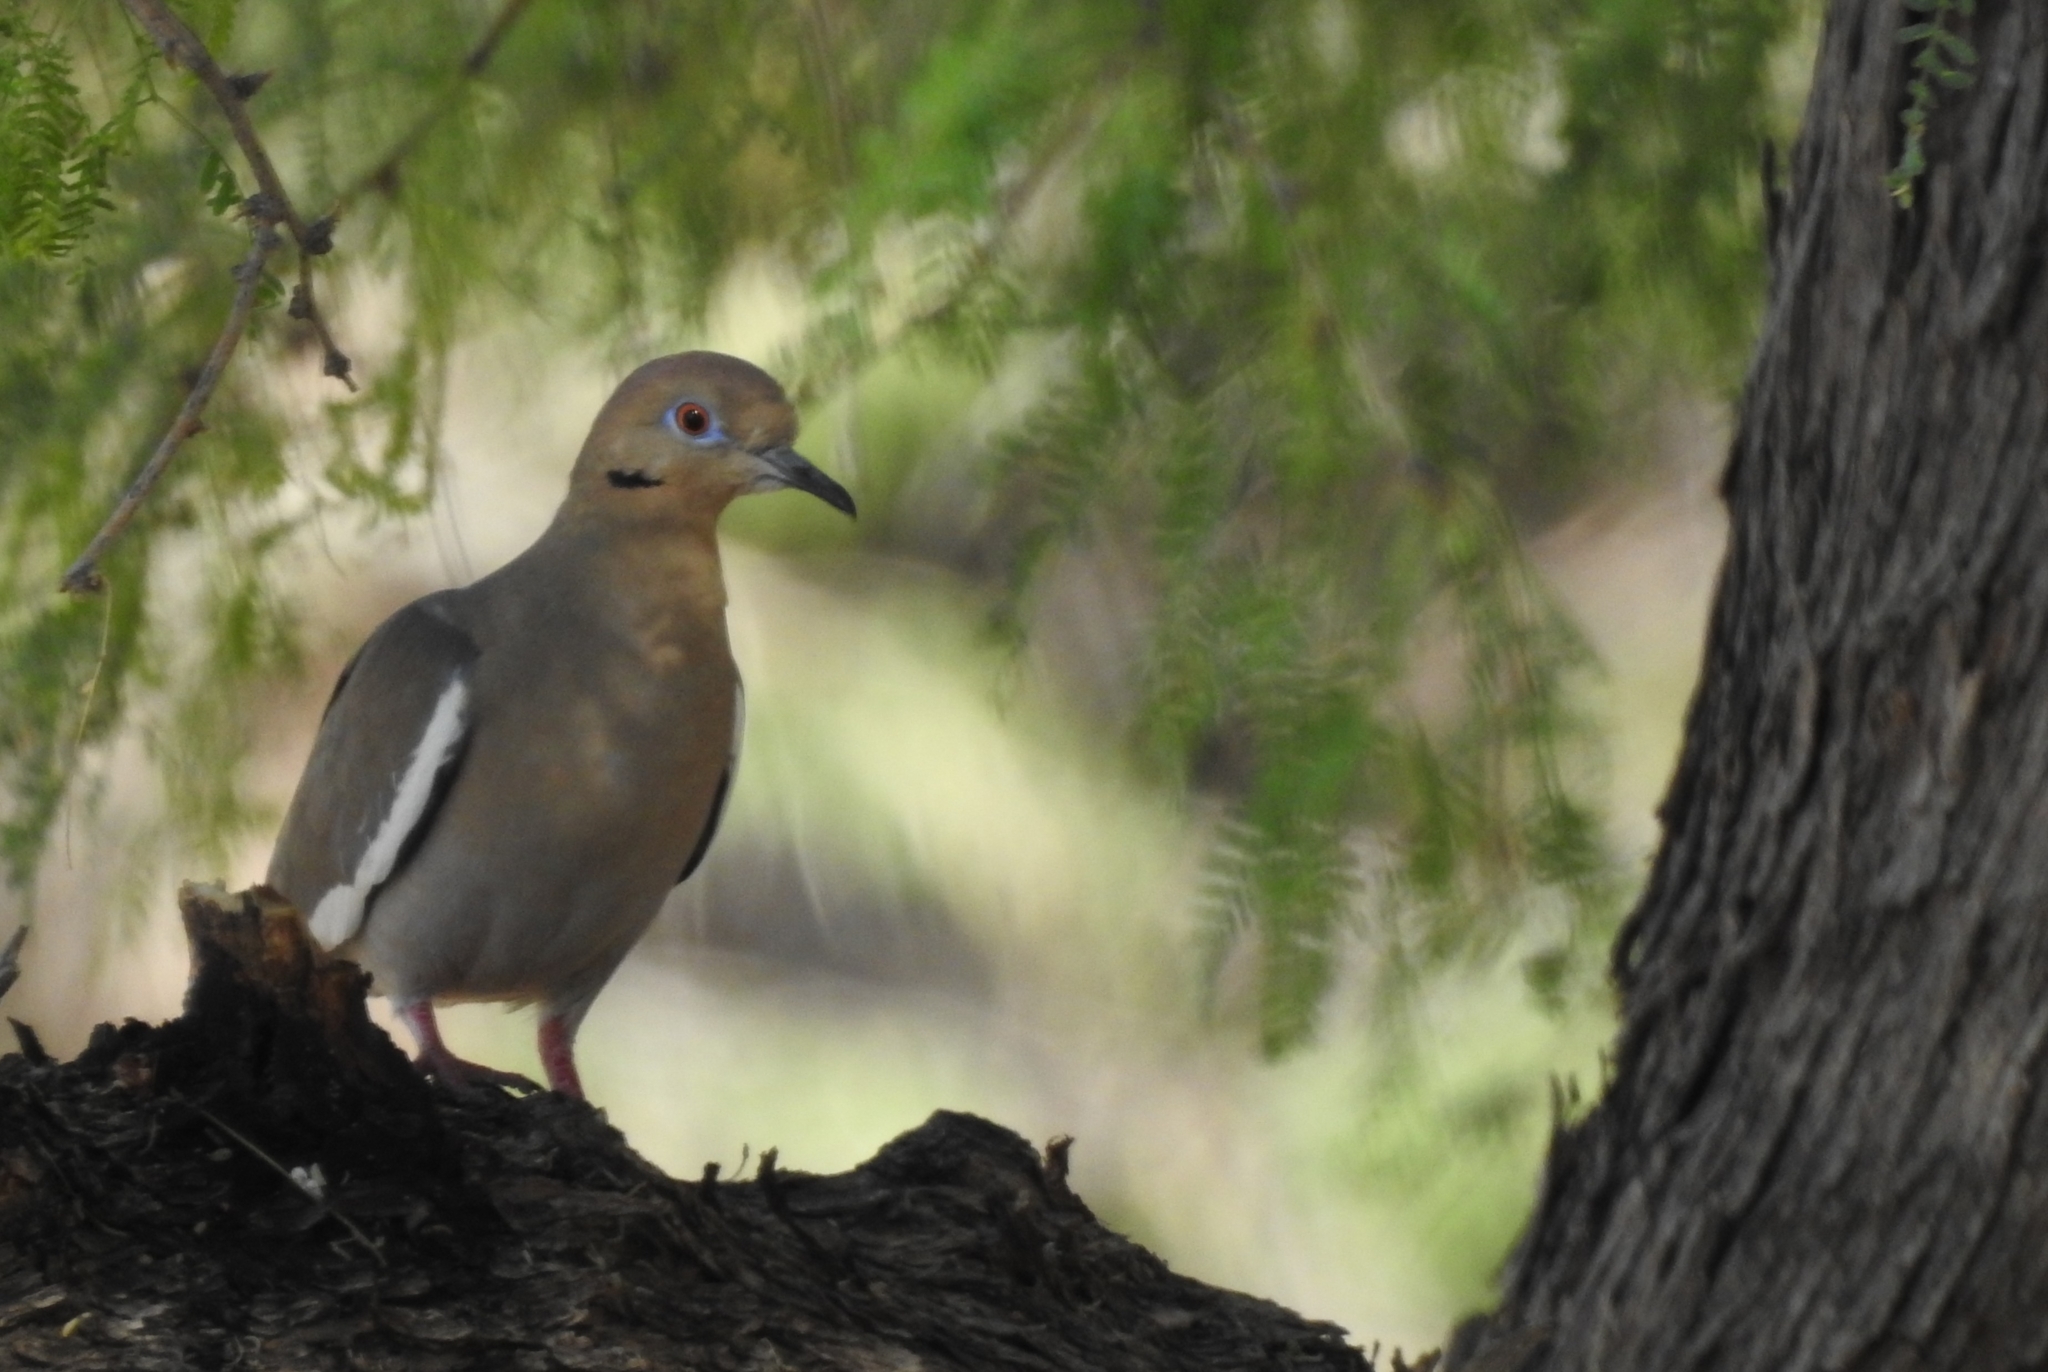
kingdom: Animalia
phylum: Chordata
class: Aves
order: Columbiformes
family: Columbidae
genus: Zenaida
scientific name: Zenaida asiatica
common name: White-winged dove
